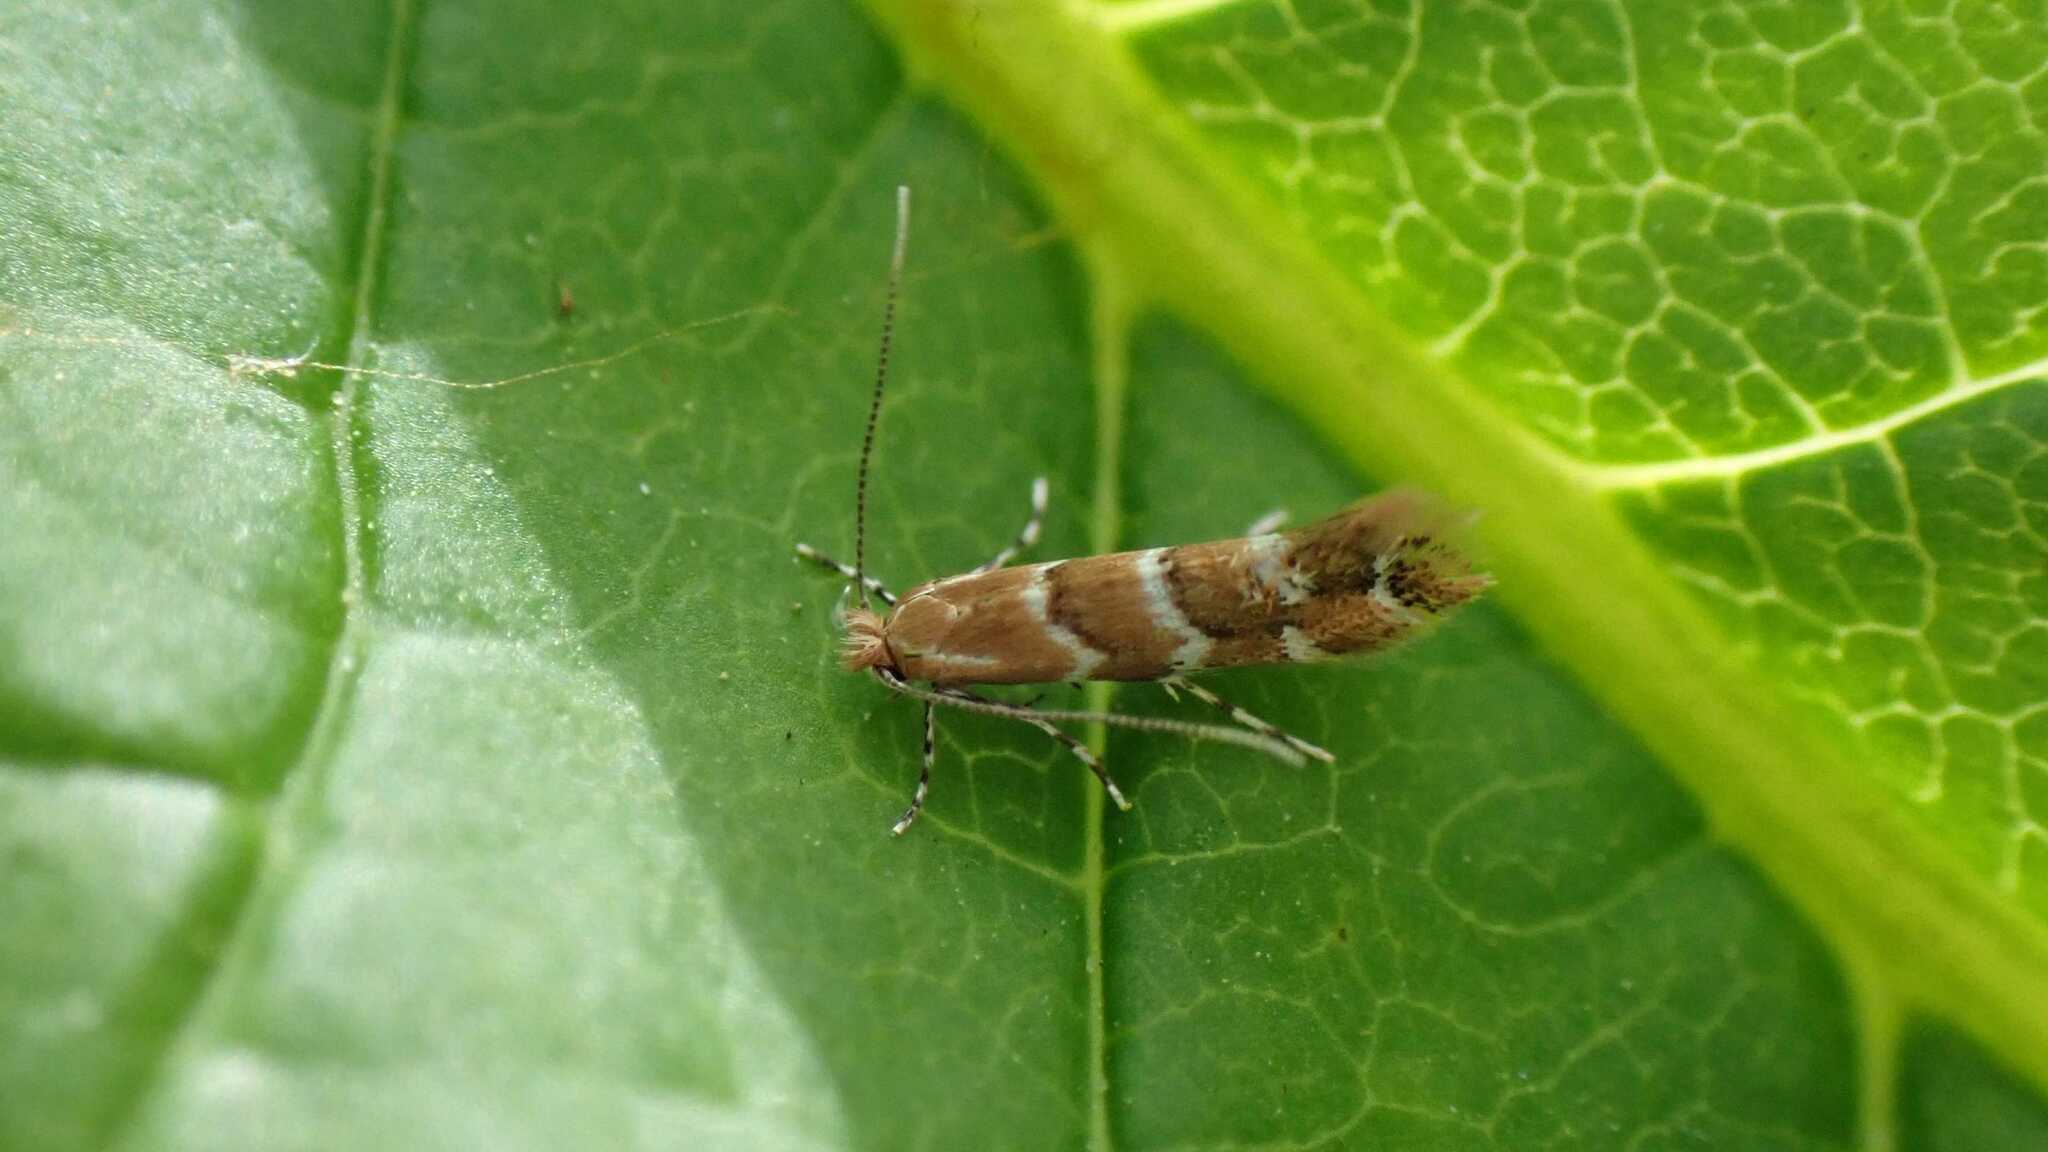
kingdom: Animalia
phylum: Arthropoda
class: Insecta
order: Lepidoptera
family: Gracillariidae
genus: Cameraria
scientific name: Cameraria ohridella
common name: Horse-chestnut leaf-miner
